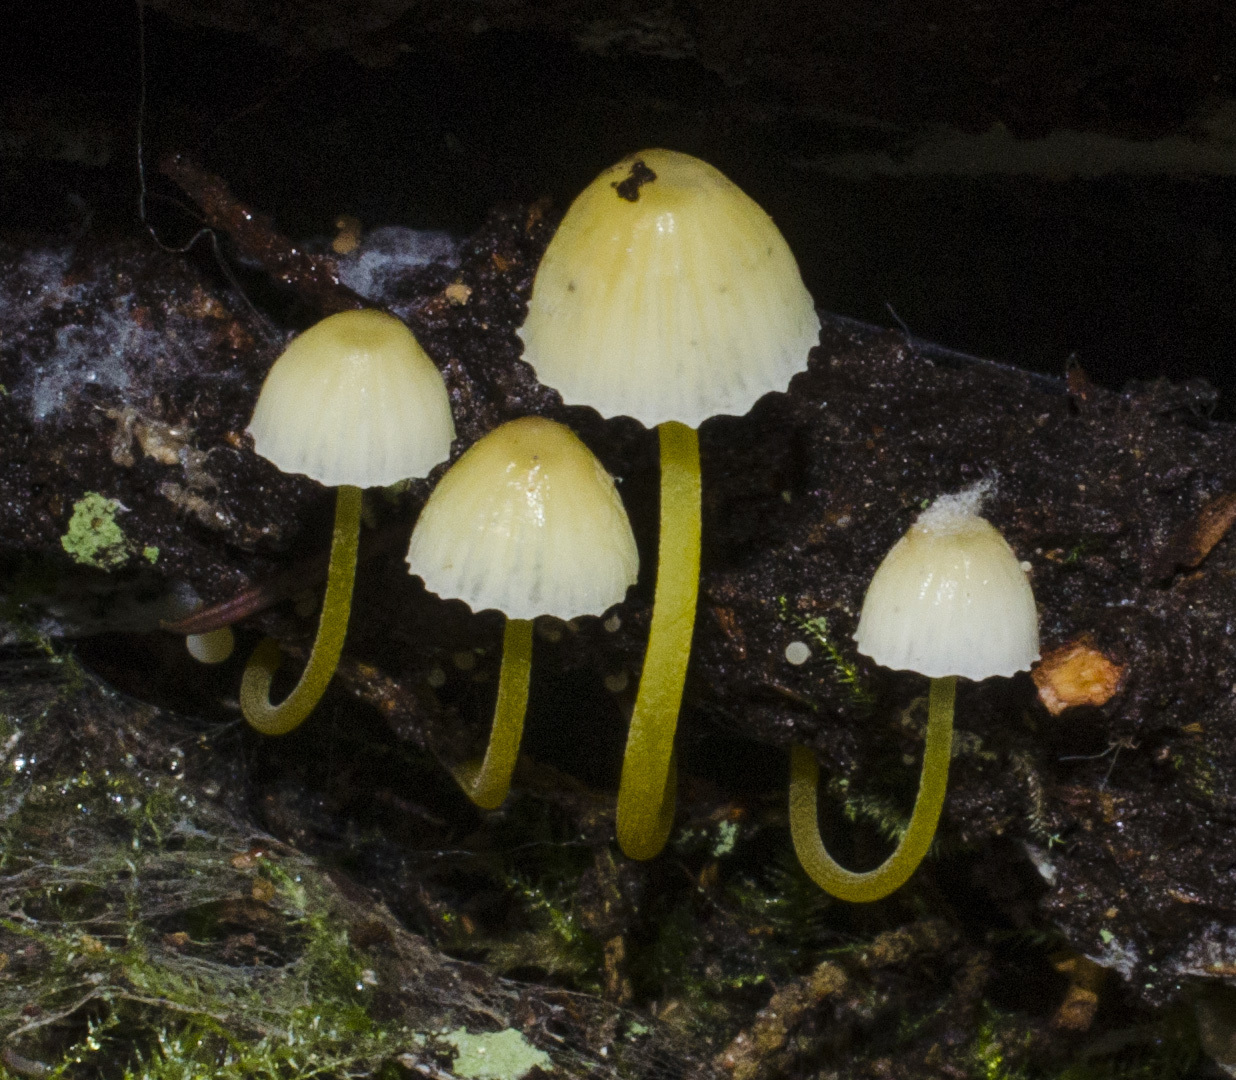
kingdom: Fungi
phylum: Basidiomycota
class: Agaricomycetes
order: Agaricales
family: Mycenaceae
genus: Mycena
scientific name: Mycena epipterygia
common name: Yellowleg bonnet
